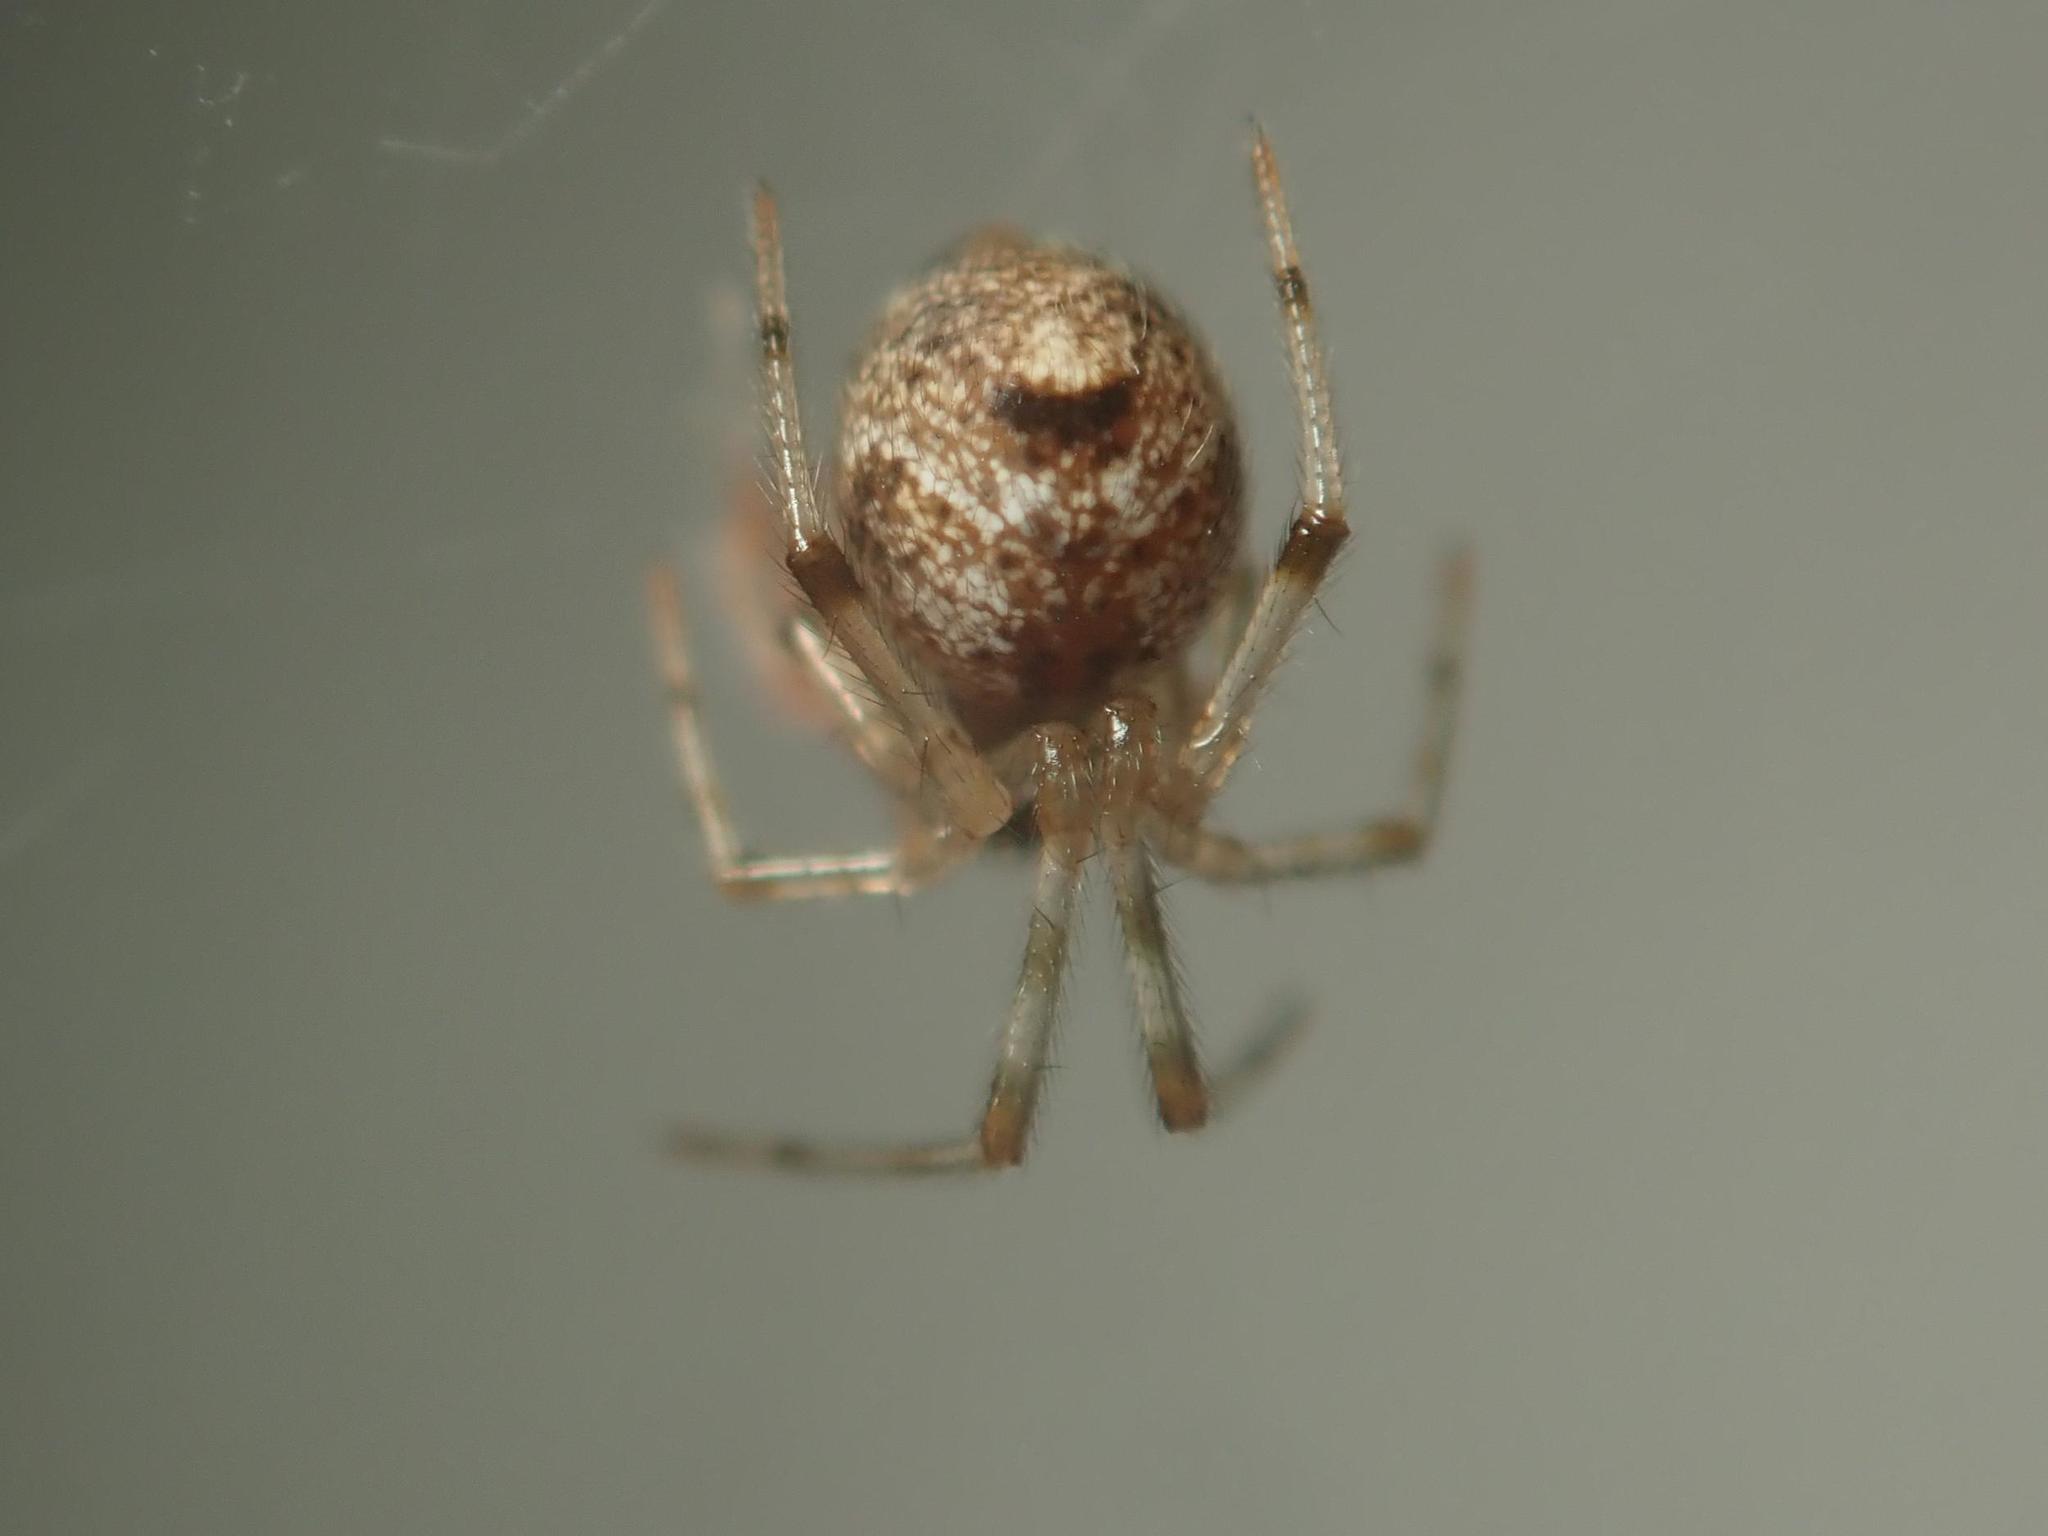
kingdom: Animalia
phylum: Arthropoda
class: Arachnida
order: Araneae
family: Theridiidae
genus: Parasteatoda
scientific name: Parasteatoda tepidariorum
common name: Common house spider
